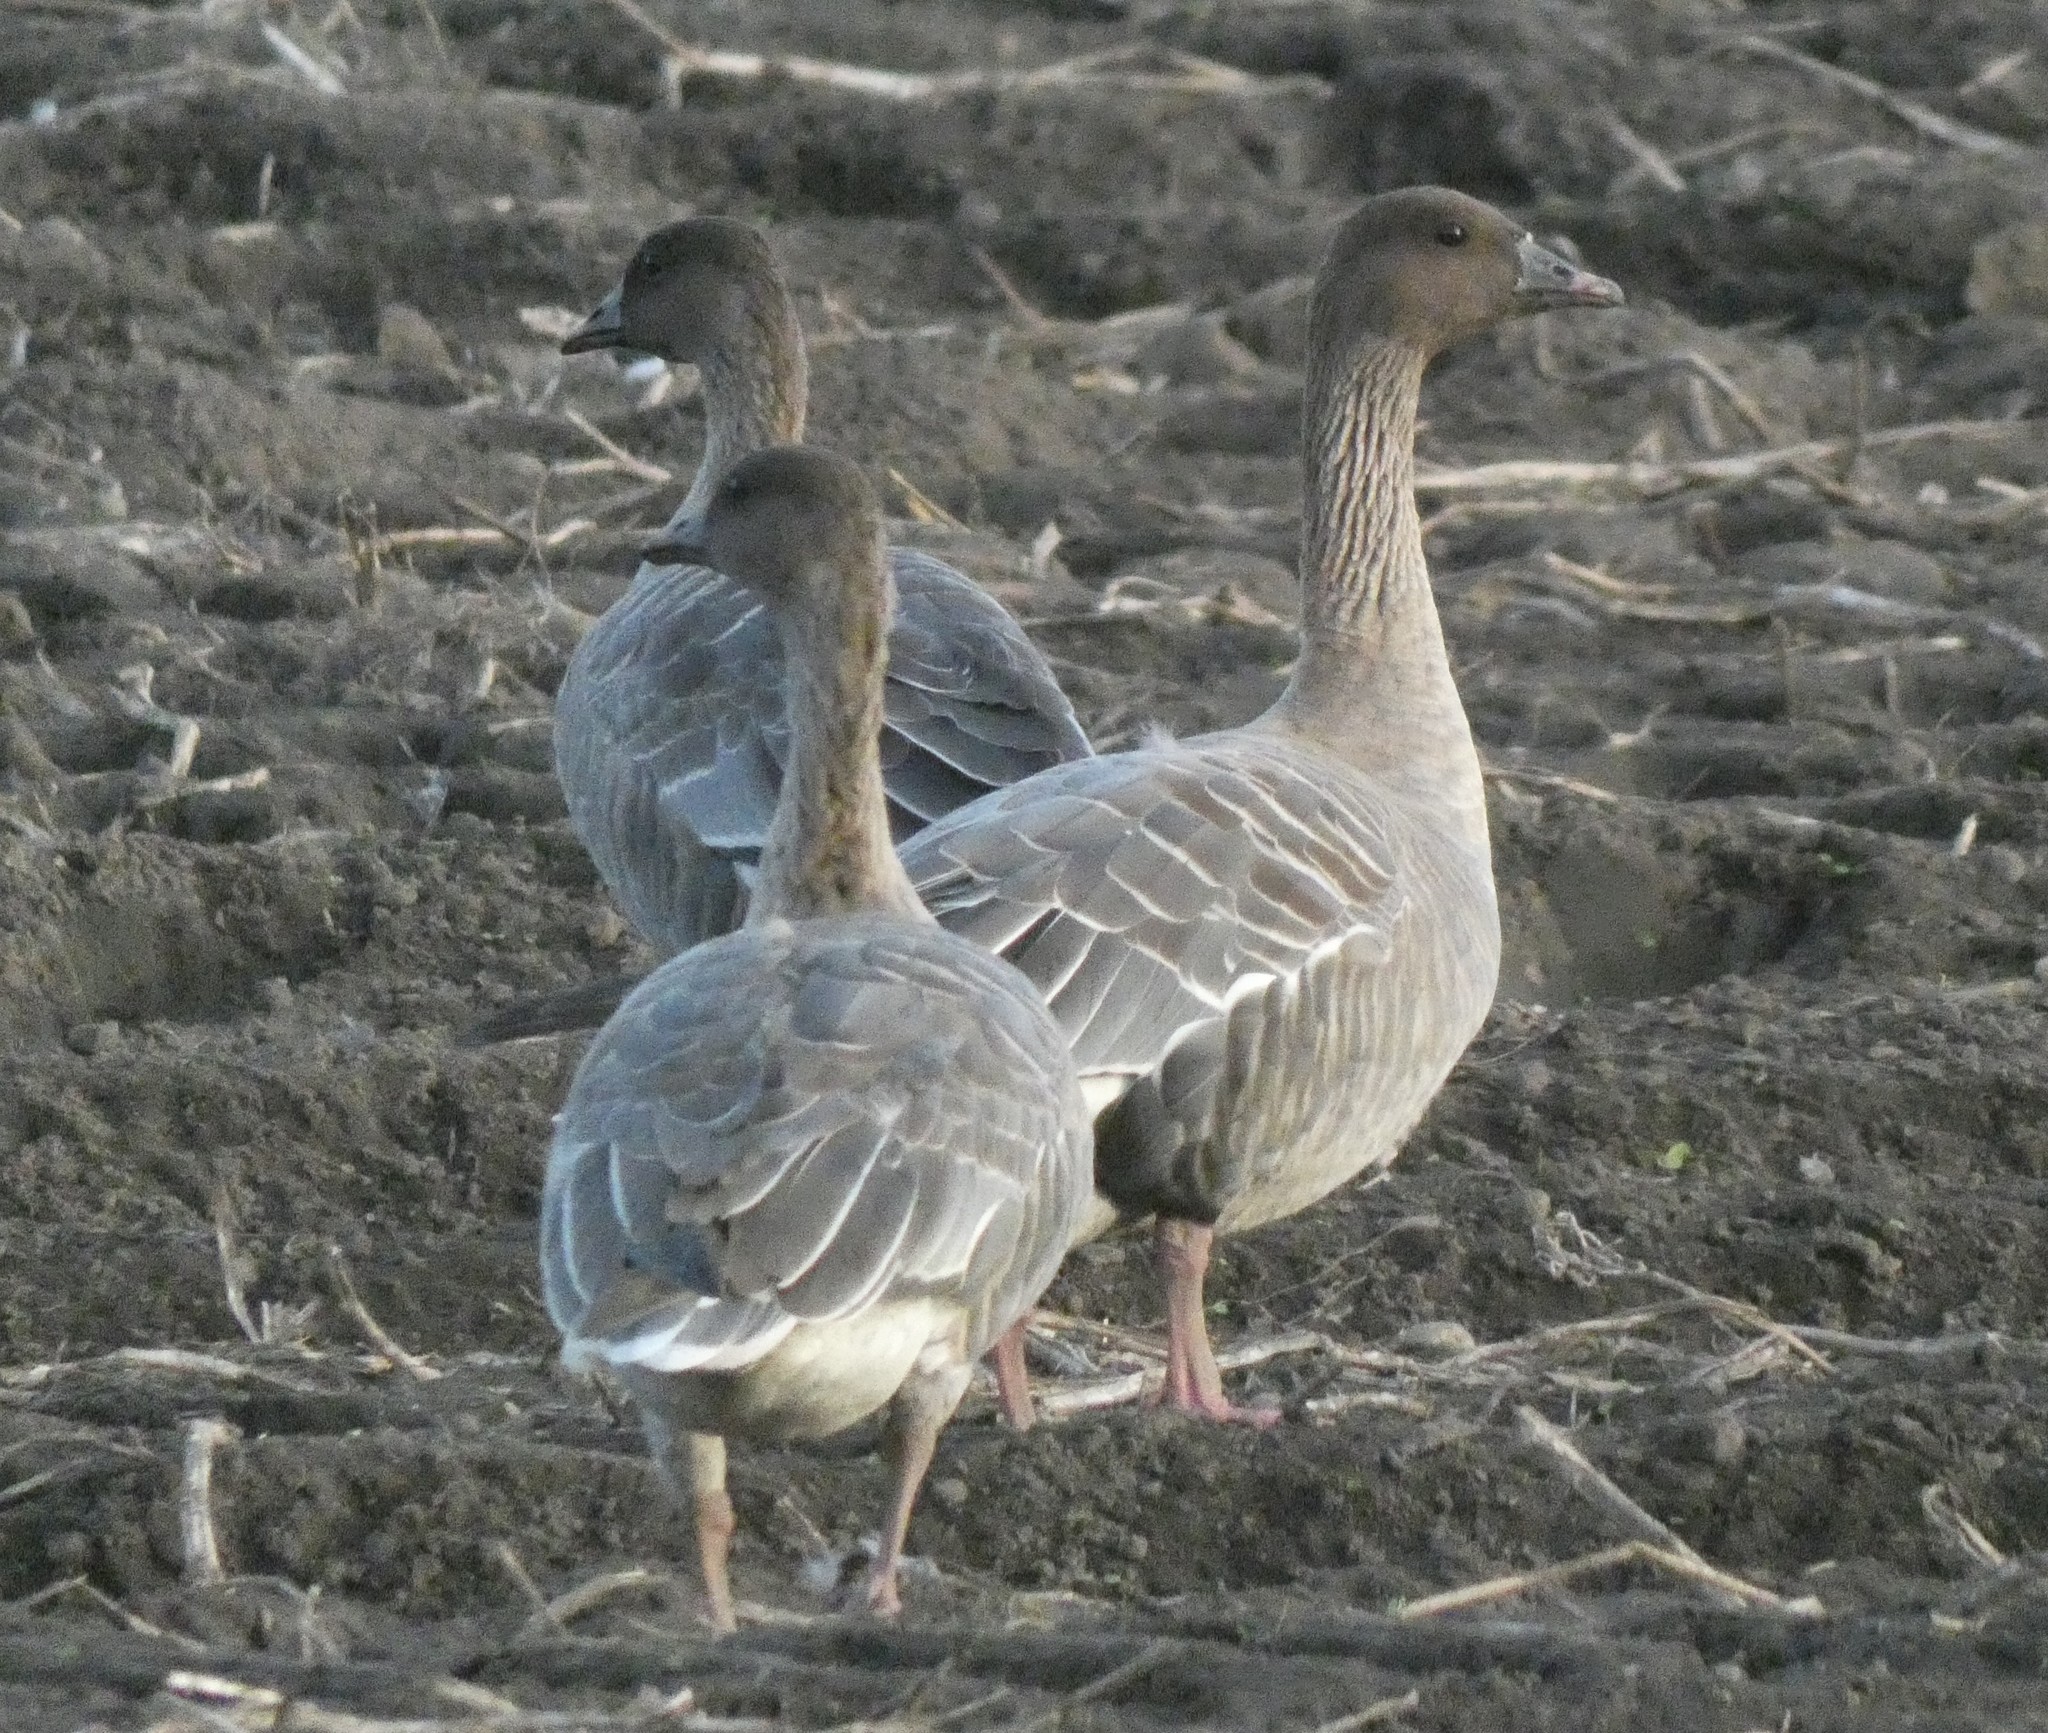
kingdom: Animalia
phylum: Chordata
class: Aves
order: Anseriformes
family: Anatidae
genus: Anser
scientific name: Anser brachyrhynchus
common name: Pink-footed goose
